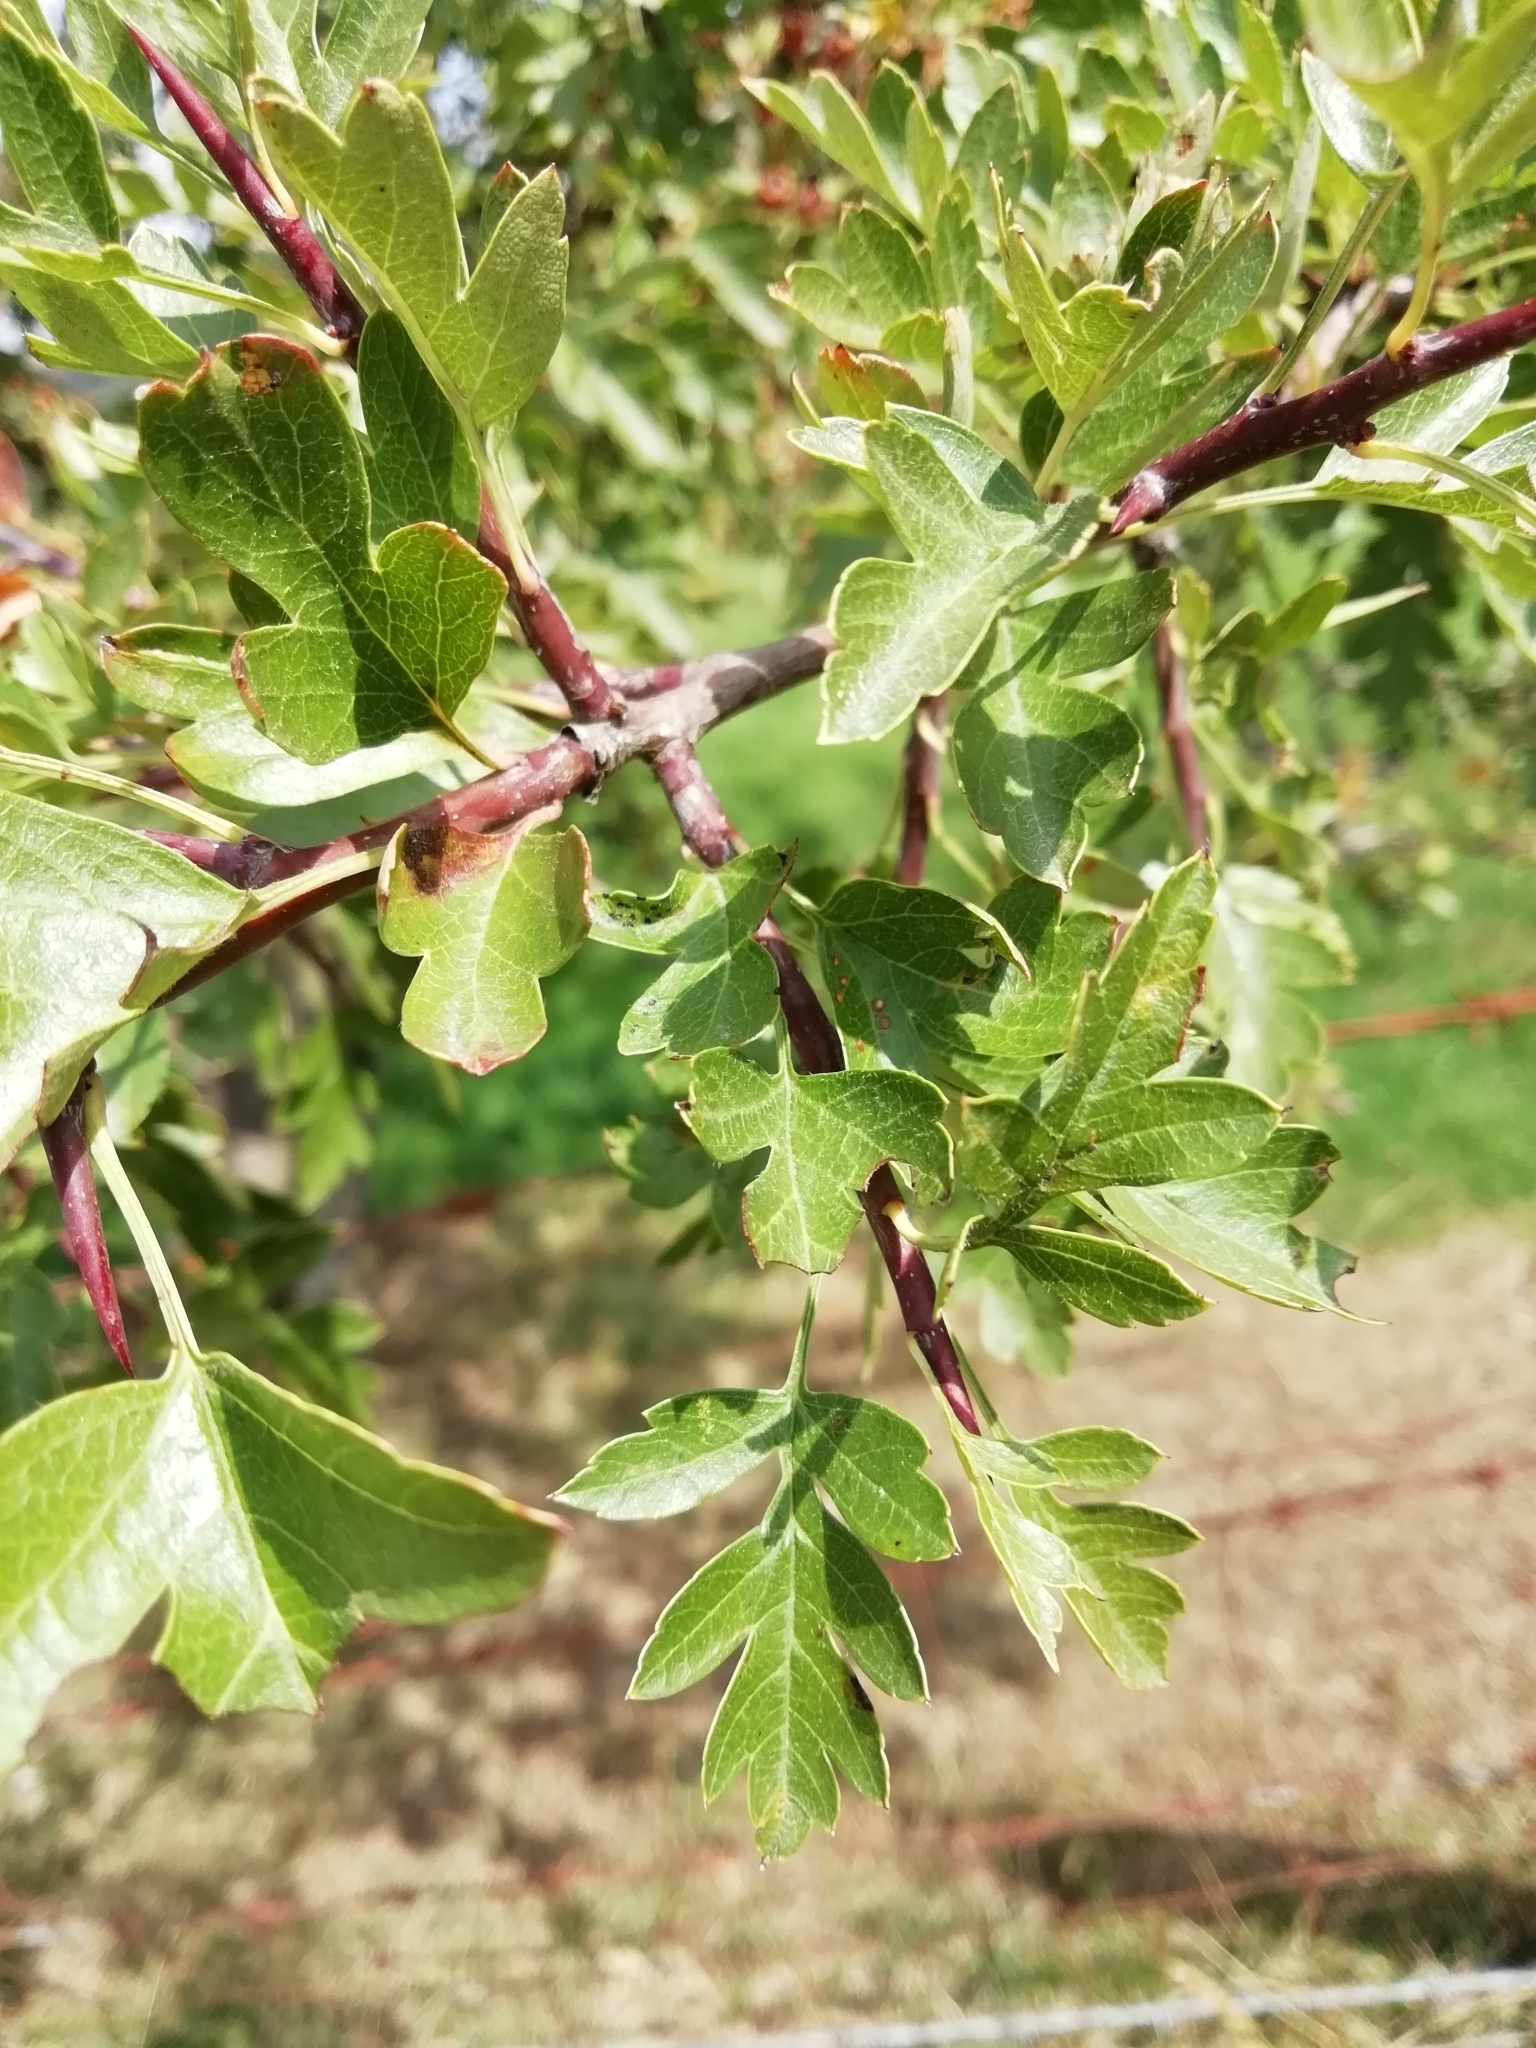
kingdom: Plantae
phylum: Tracheophyta
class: Magnoliopsida
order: Rosales
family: Rosaceae
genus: Crataegus
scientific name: Crataegus monogyna
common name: Hawthorn
